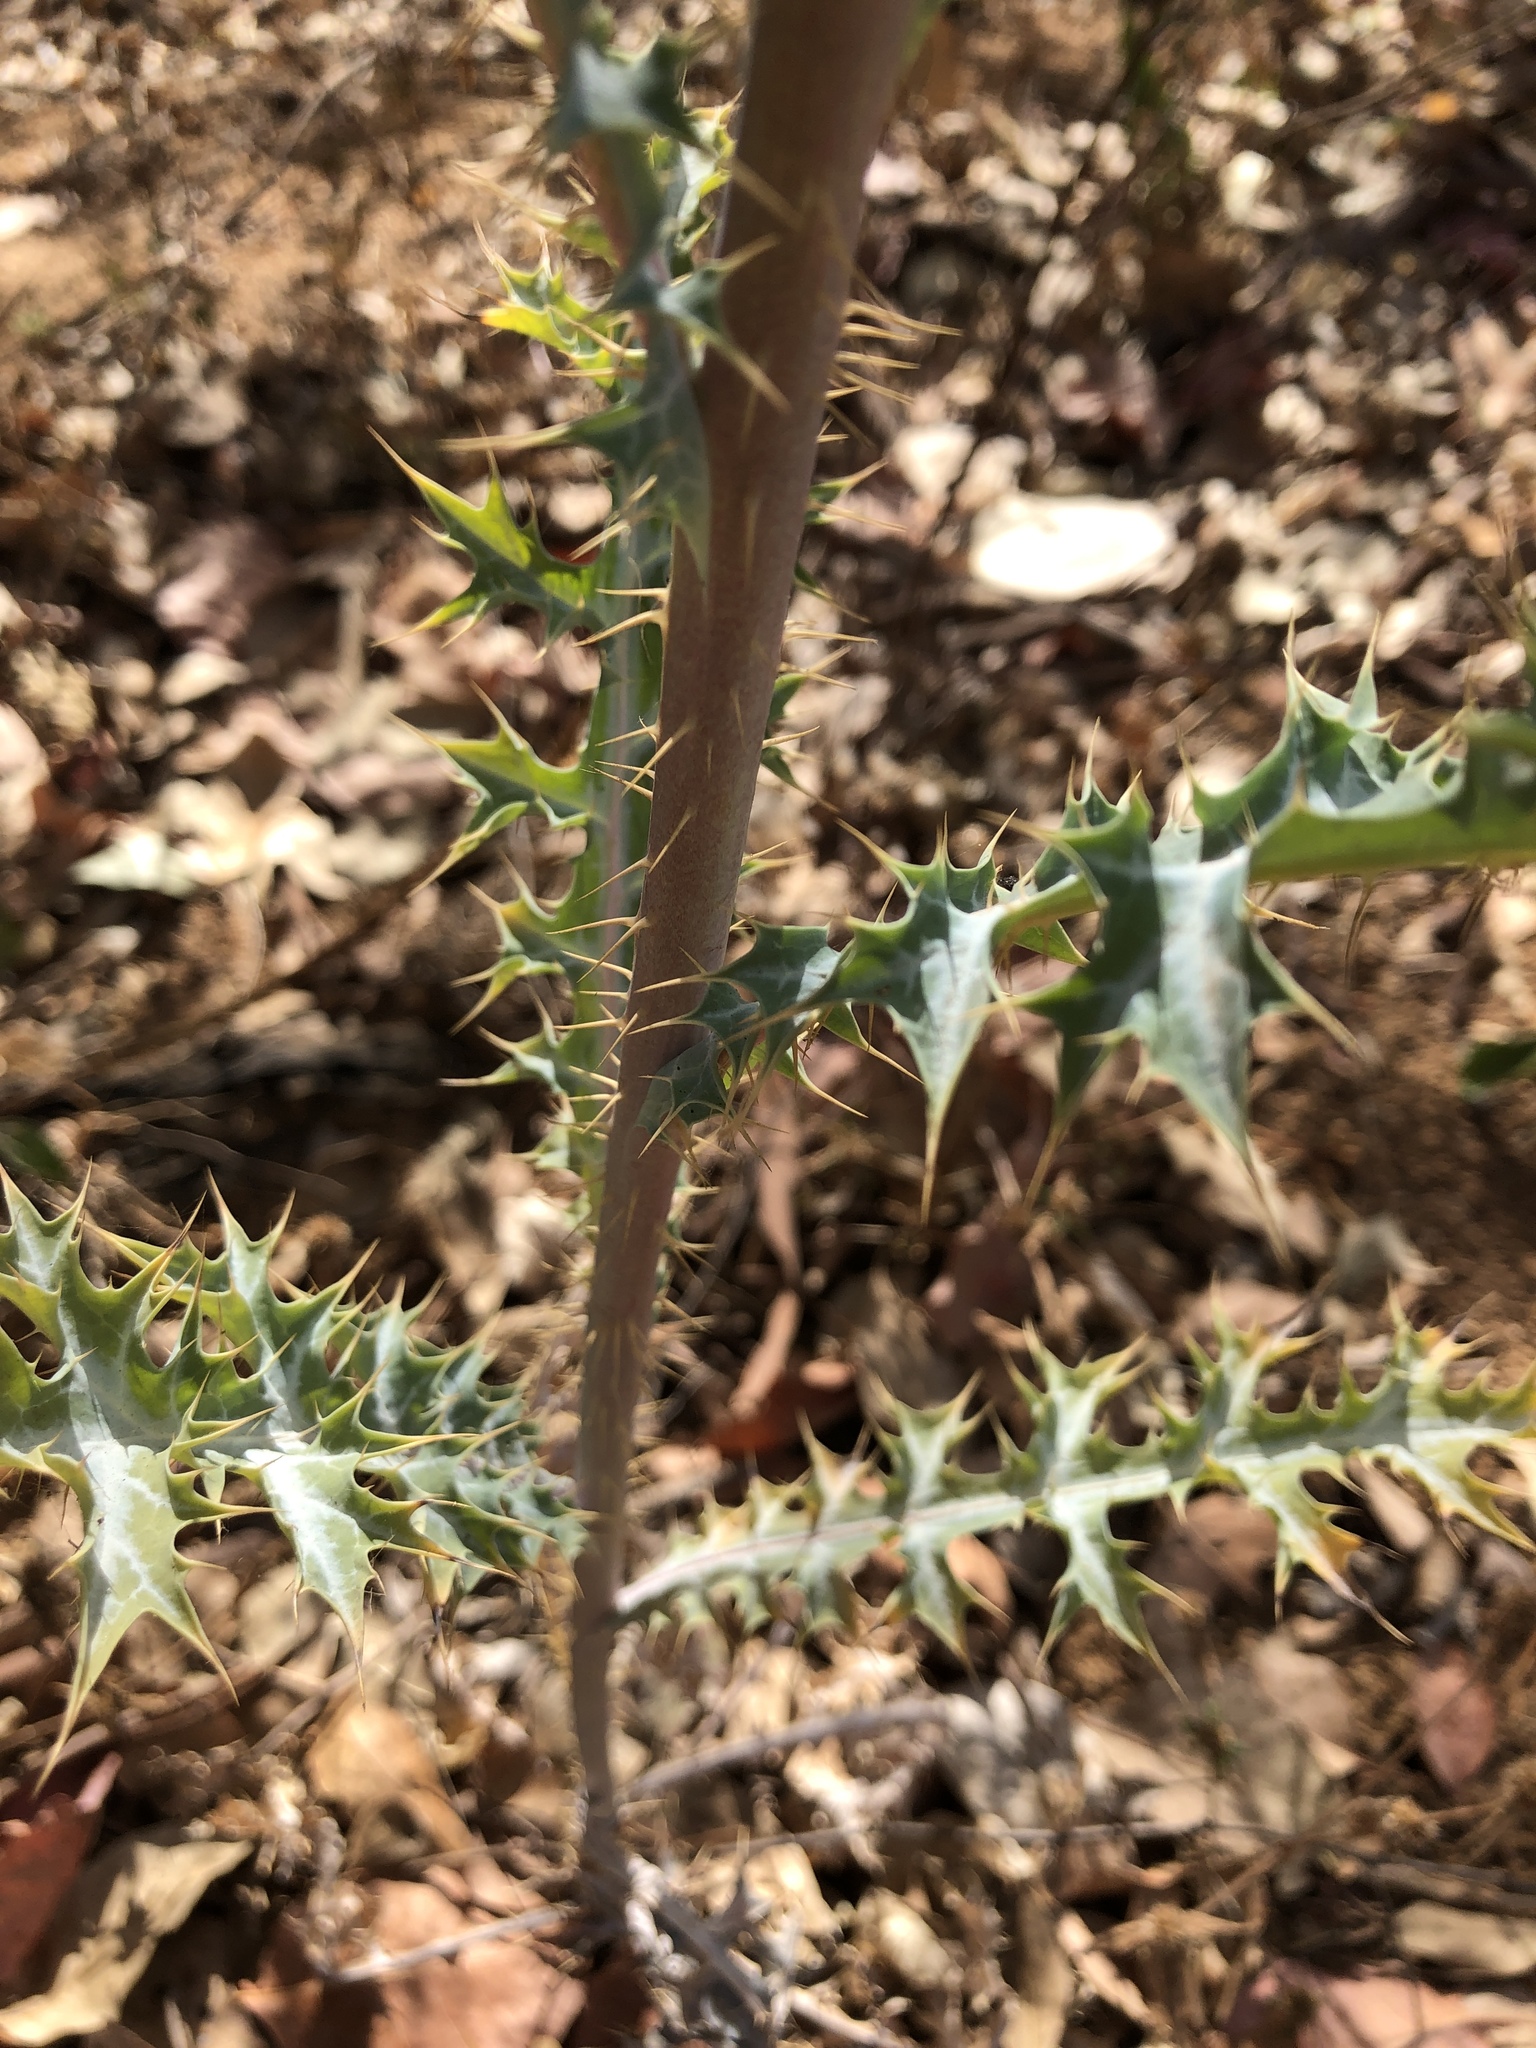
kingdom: Plantae
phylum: Tracheophyta
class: Magnoliopsida
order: Ranunculales
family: Papaveraceae
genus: Argemone
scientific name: Argemone
